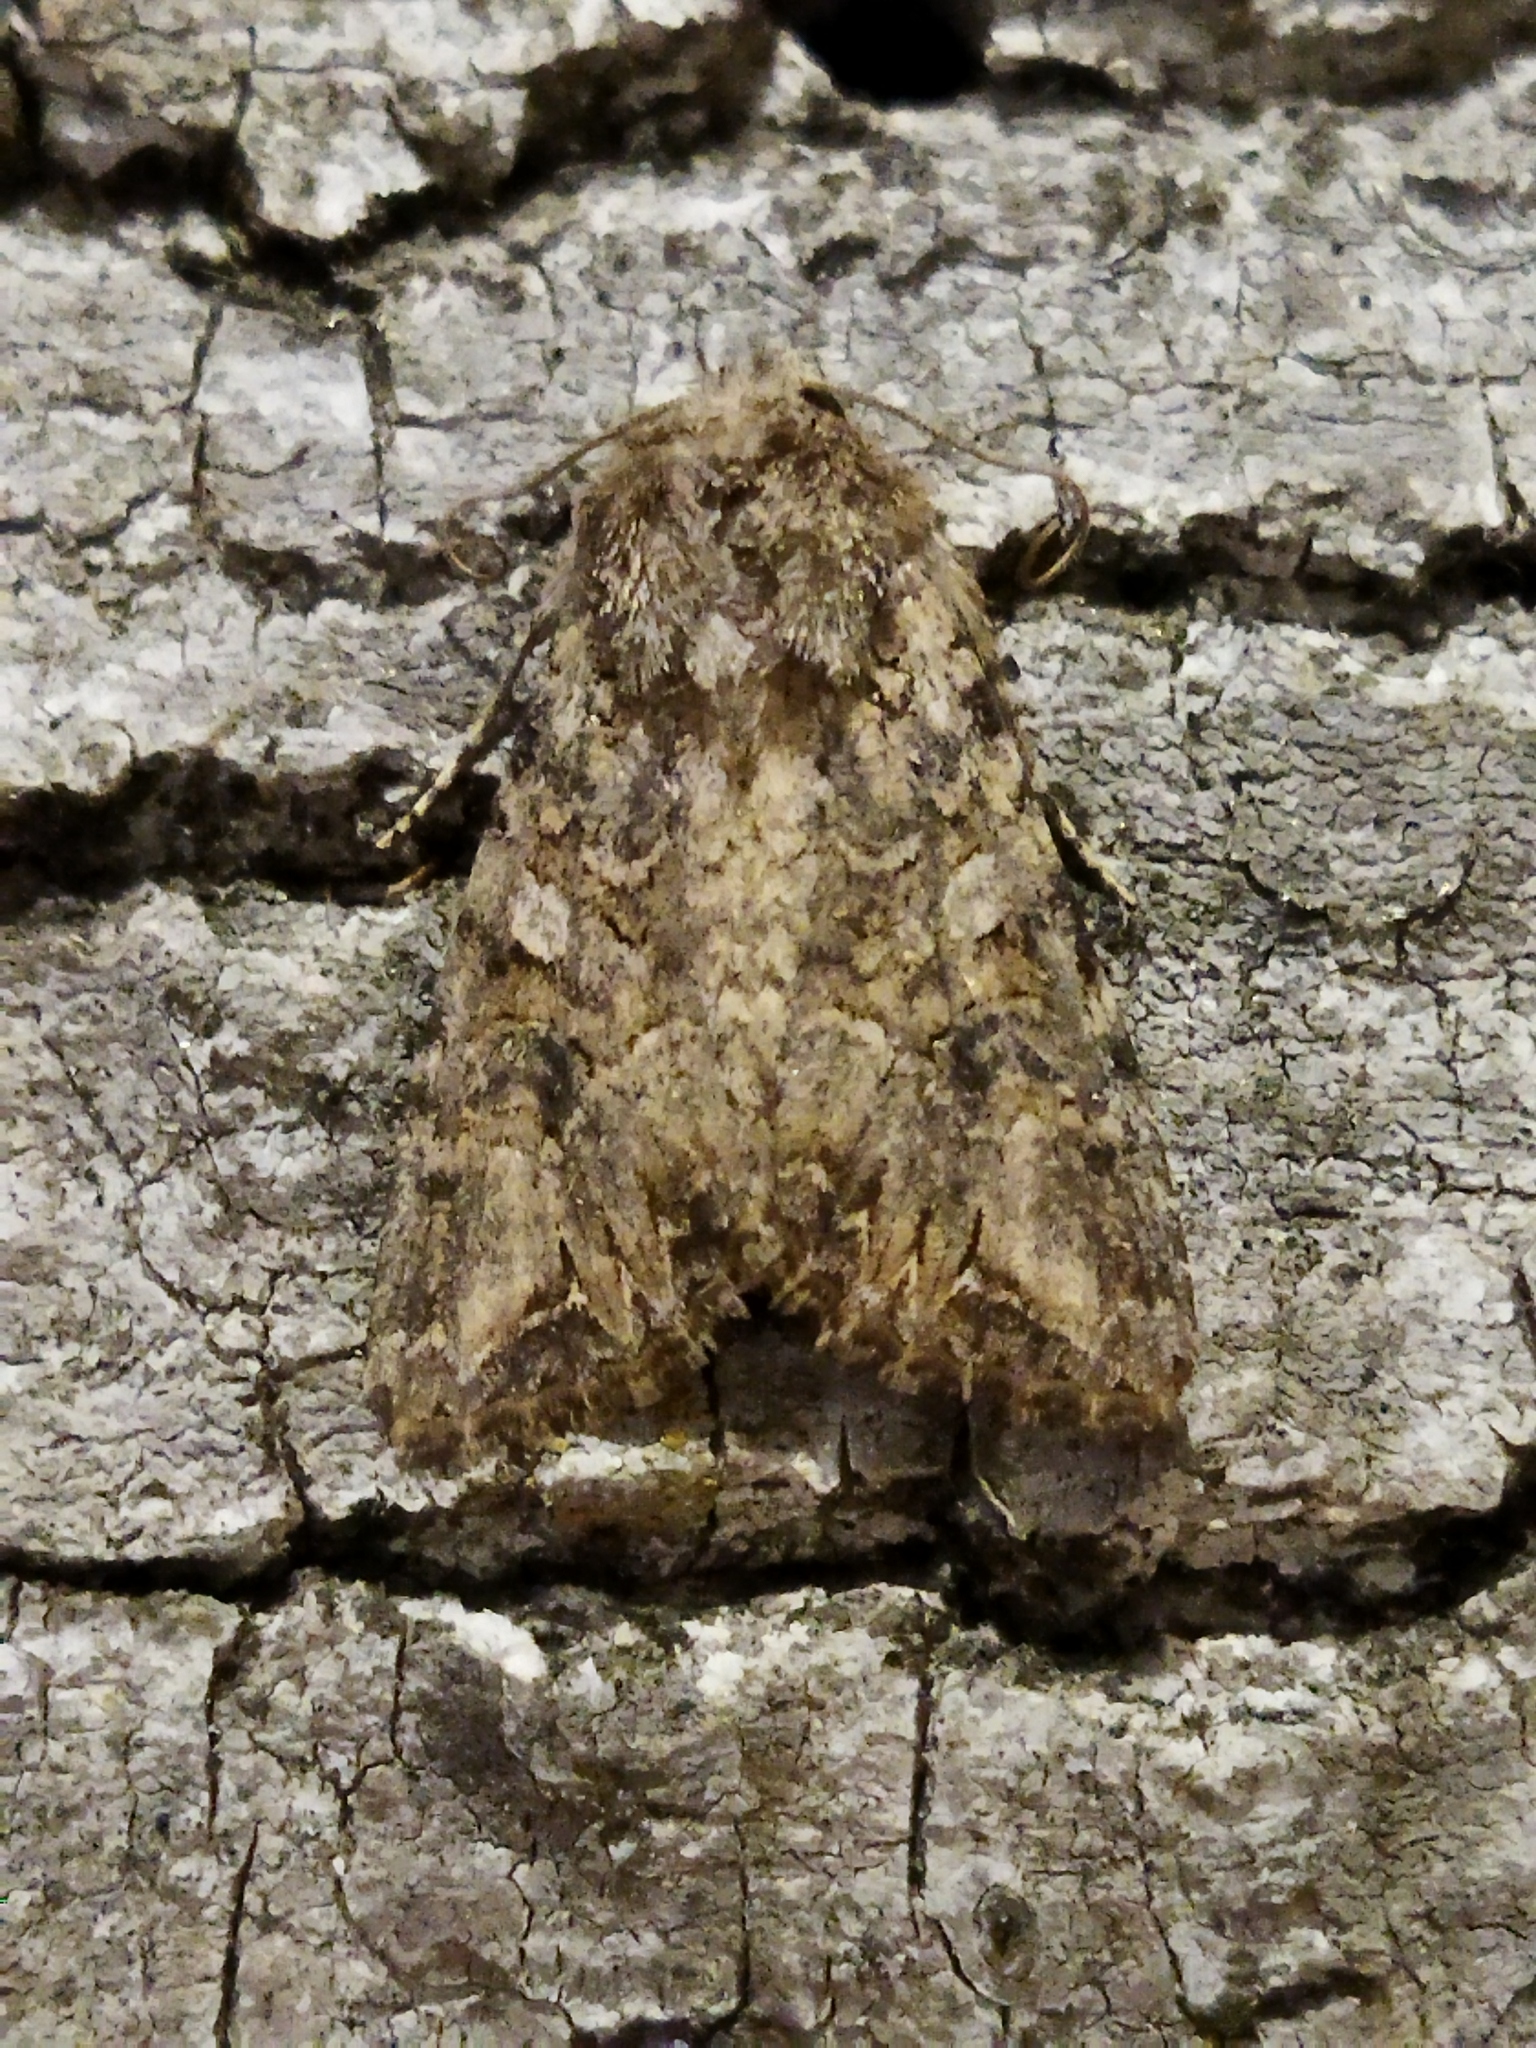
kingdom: Animalia
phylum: Arthropoda
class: Insecta
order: Lepidoptera
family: Noctuidae
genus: Anarta
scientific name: Anarta trifolii
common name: Clover cutworm moth
